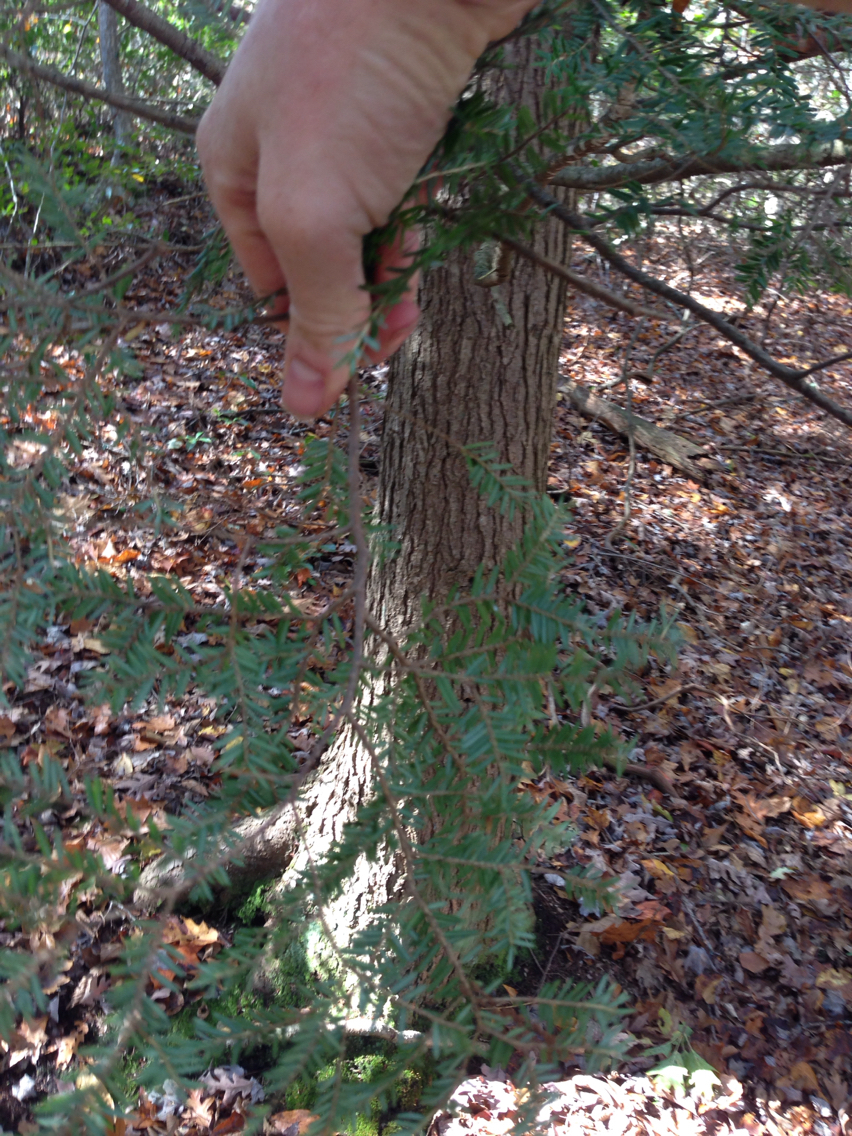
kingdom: Plantae
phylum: Tracheophyta
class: Pinopsida
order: Pinales
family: Pinaceae
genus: Tsuga
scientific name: Tsuga canadensis
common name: Eastern hemlock
